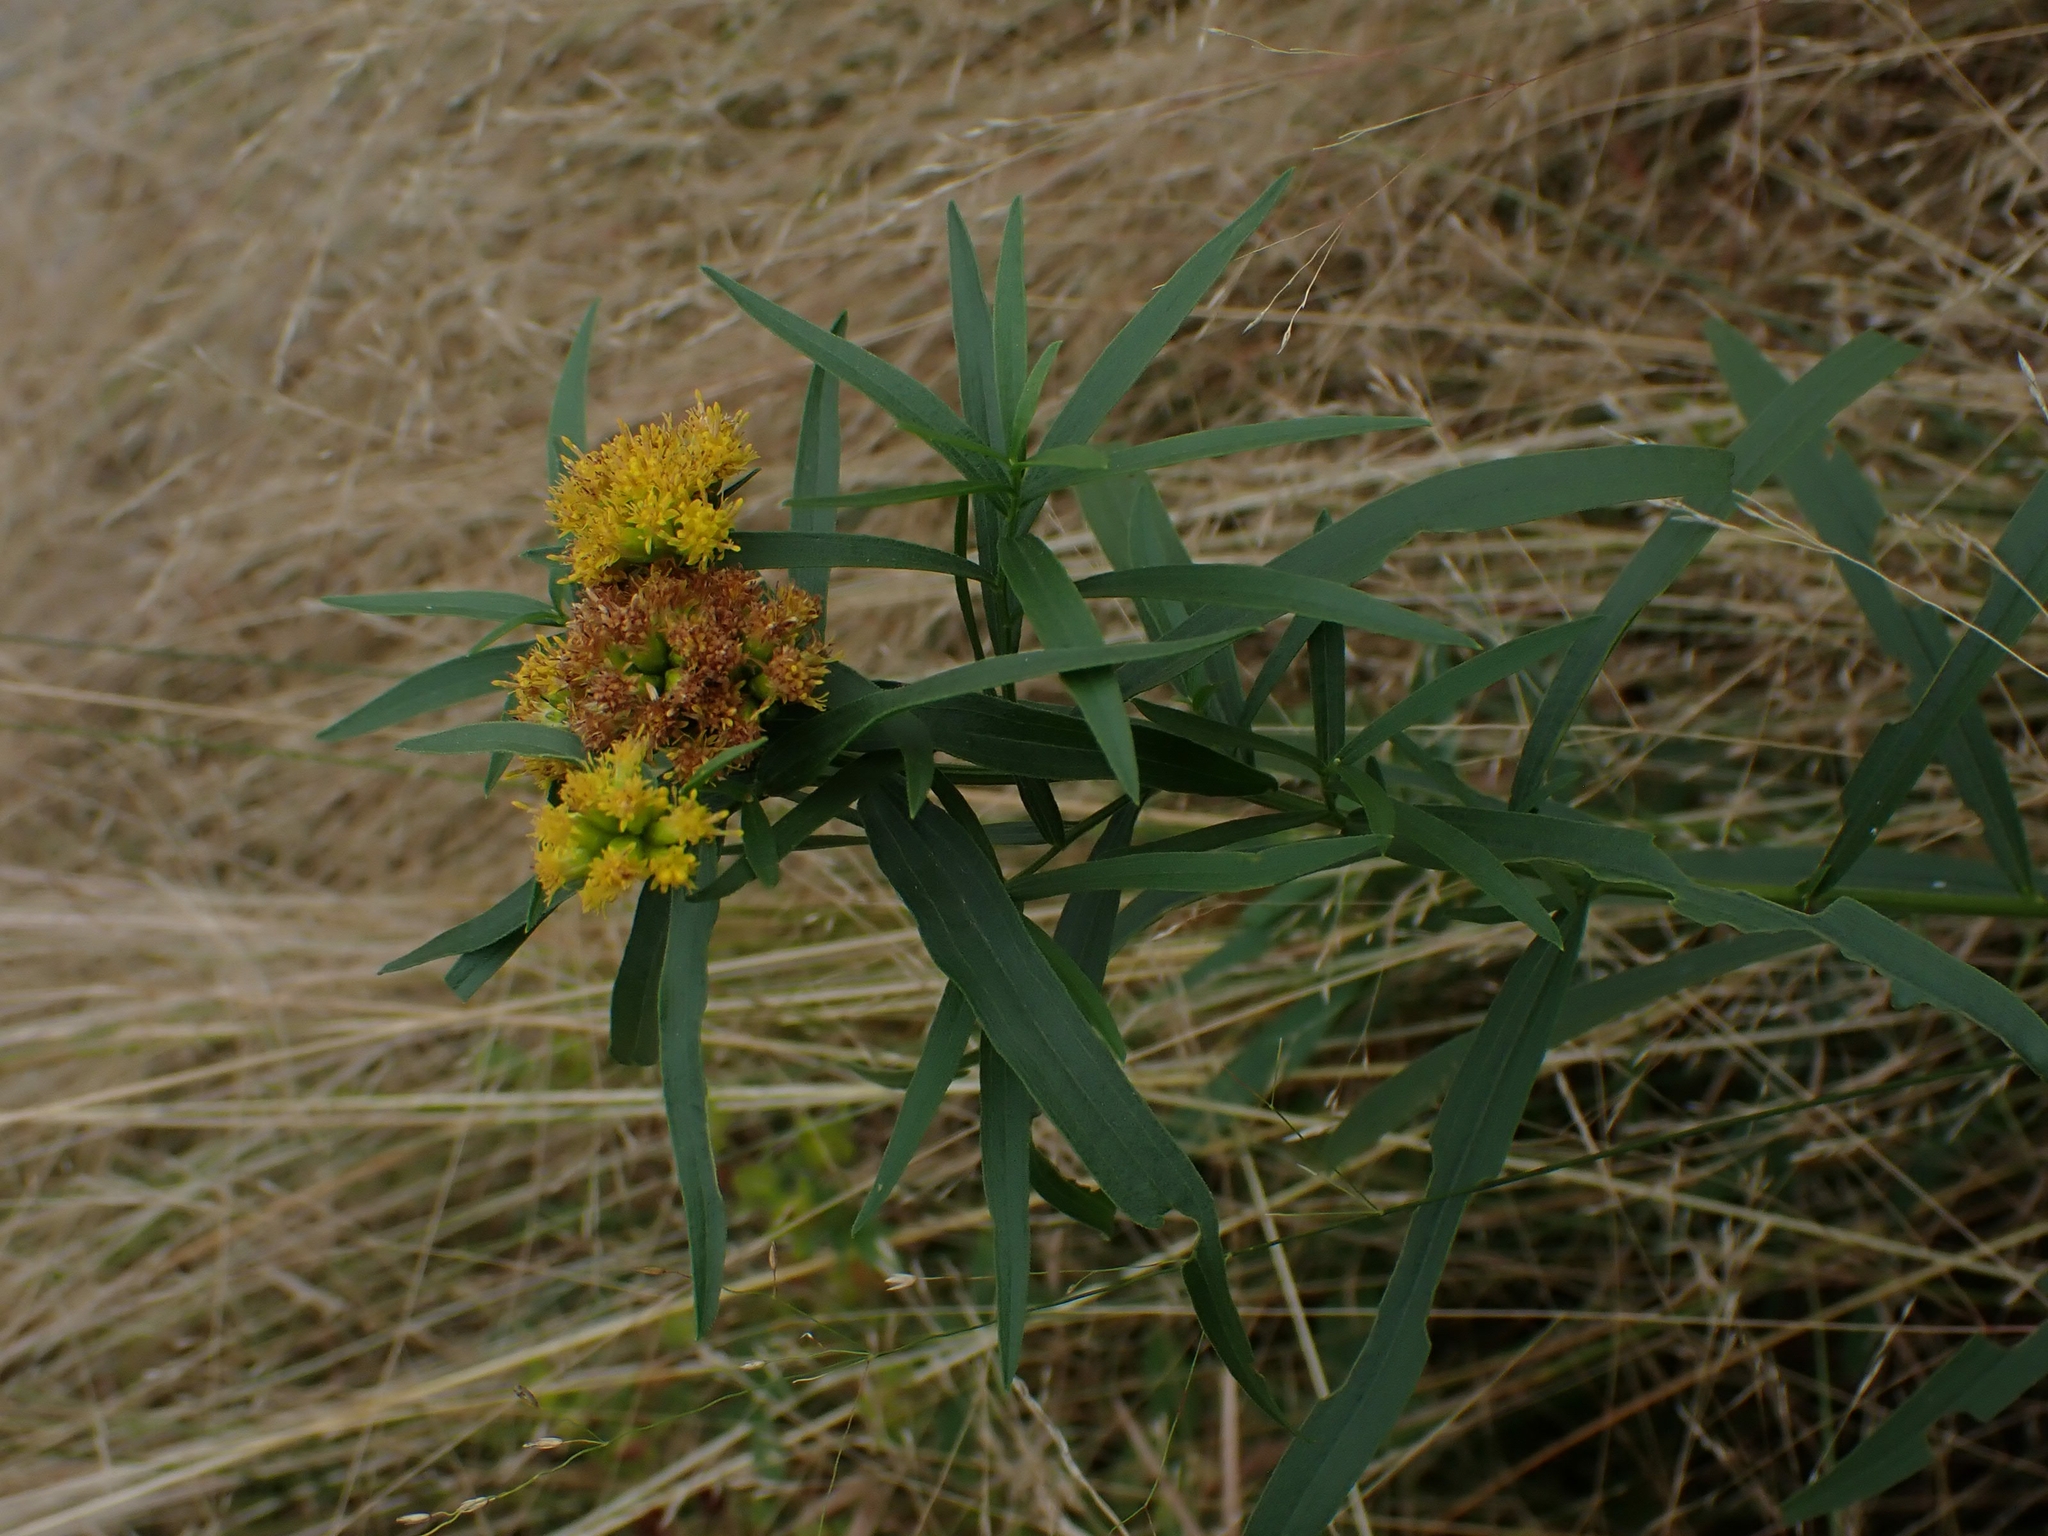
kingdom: Plantae
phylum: Tracheophyta
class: Magnoliopsida
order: Asterales
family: Asteraceae
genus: Euthamia
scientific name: Euthamia graminifolia
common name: Common goldentop
